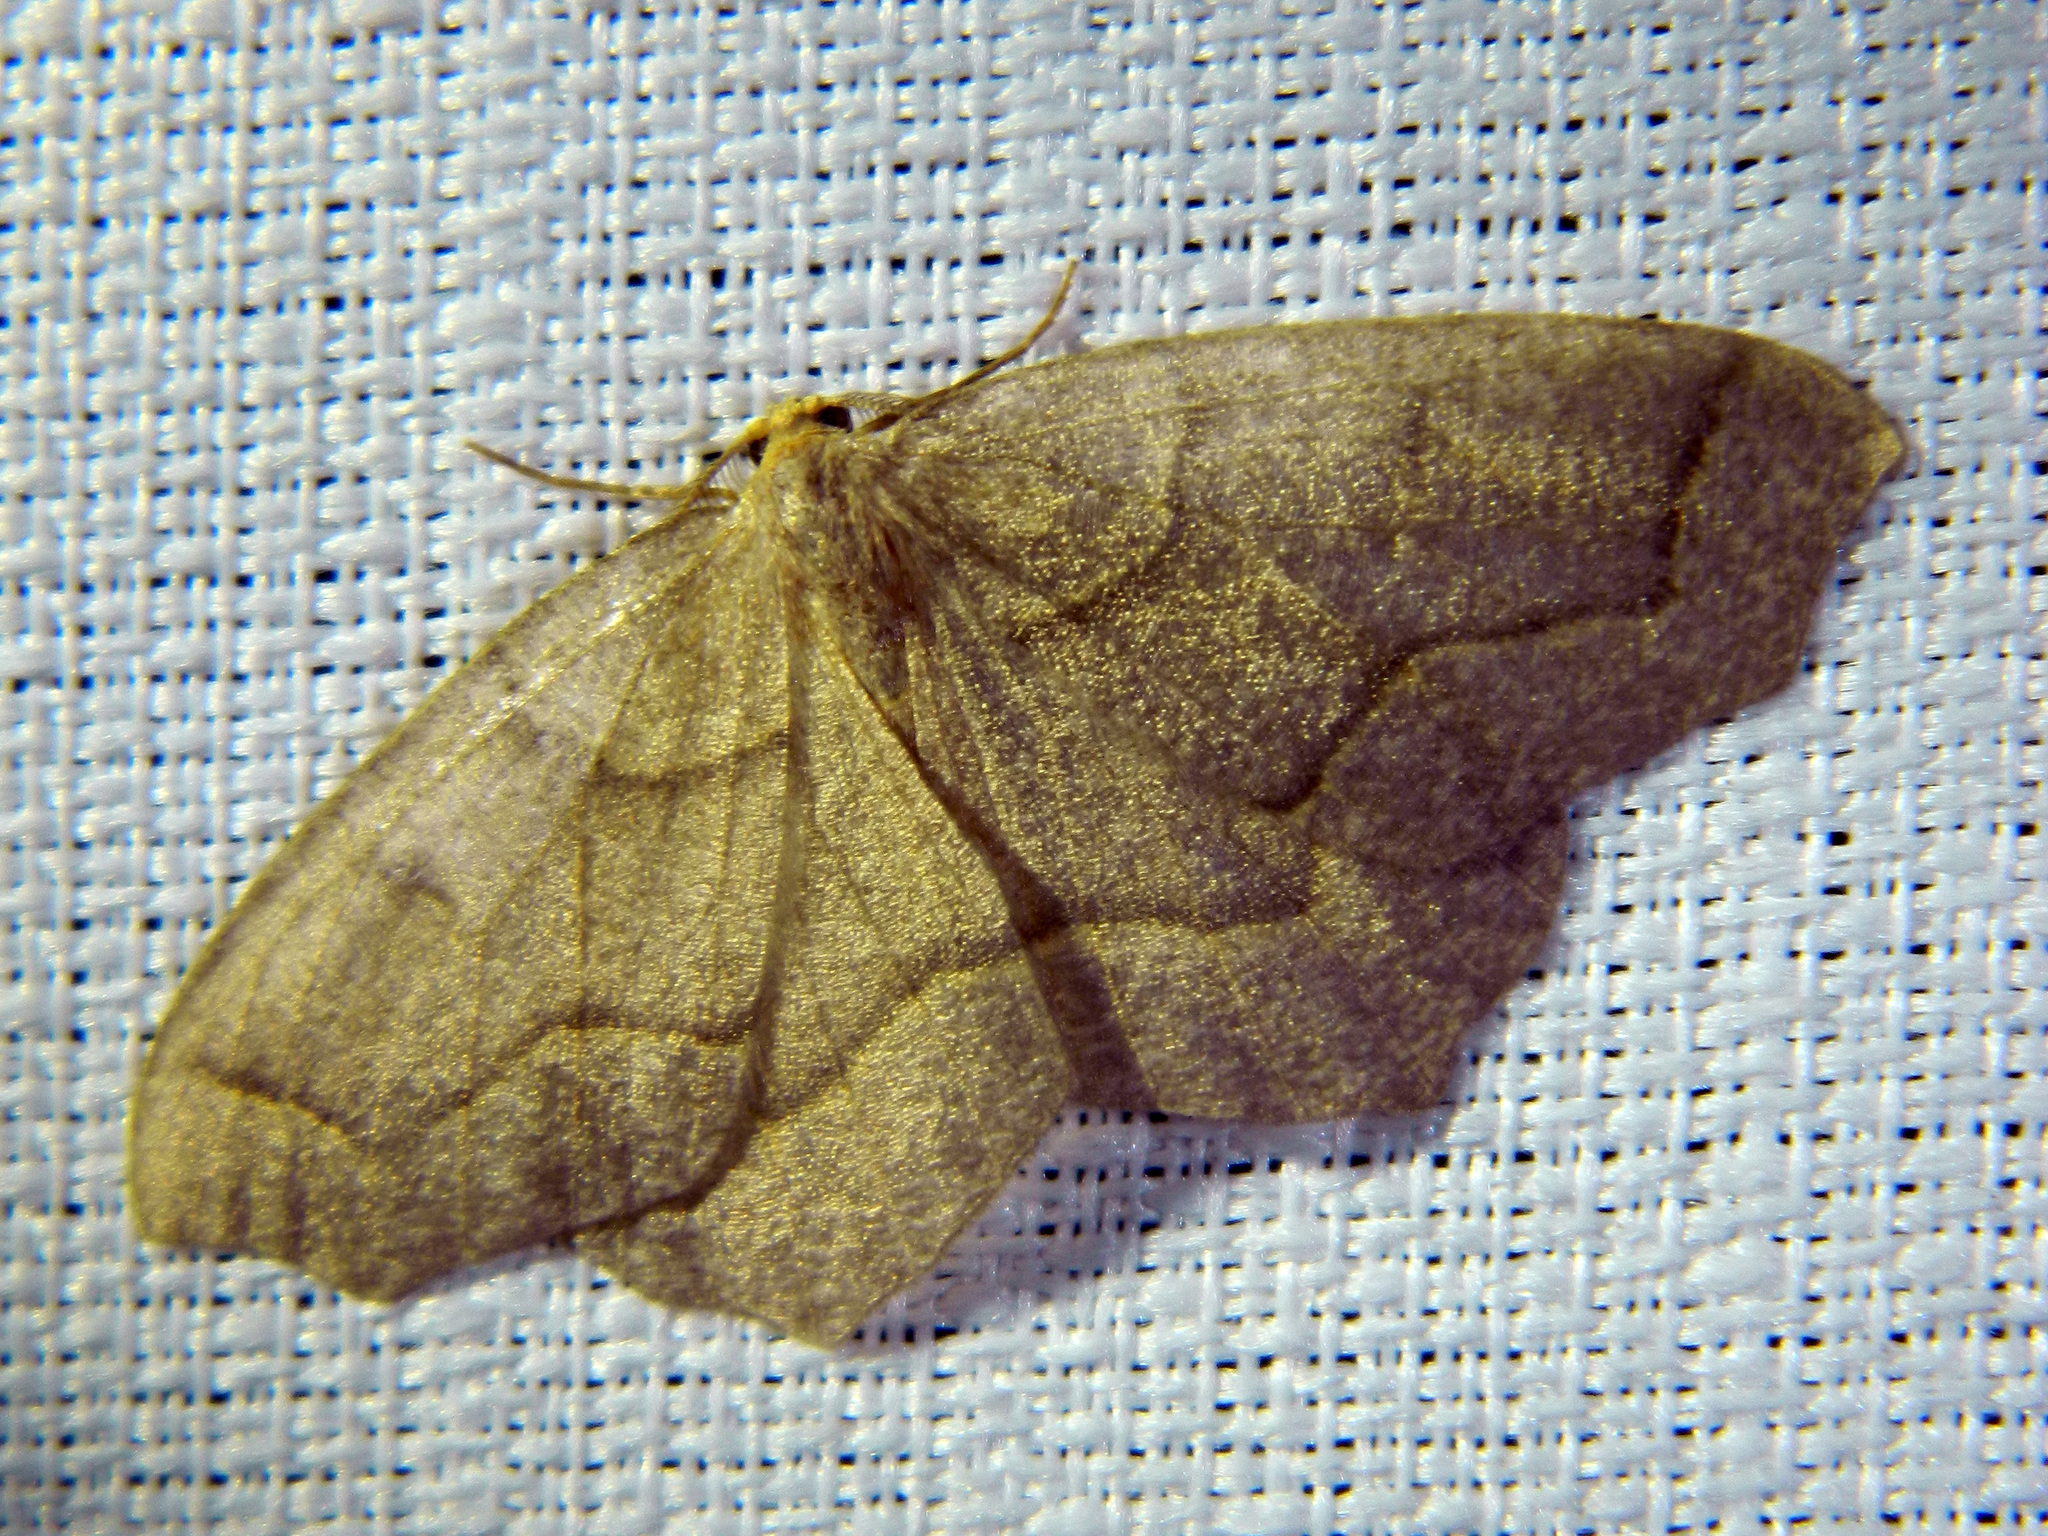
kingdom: Animalia
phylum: Arthropoda
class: Insecta
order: Lepidoptera
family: Geometridae
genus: Lambdina
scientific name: Lambdina fiscellaria
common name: Hemlock looper
